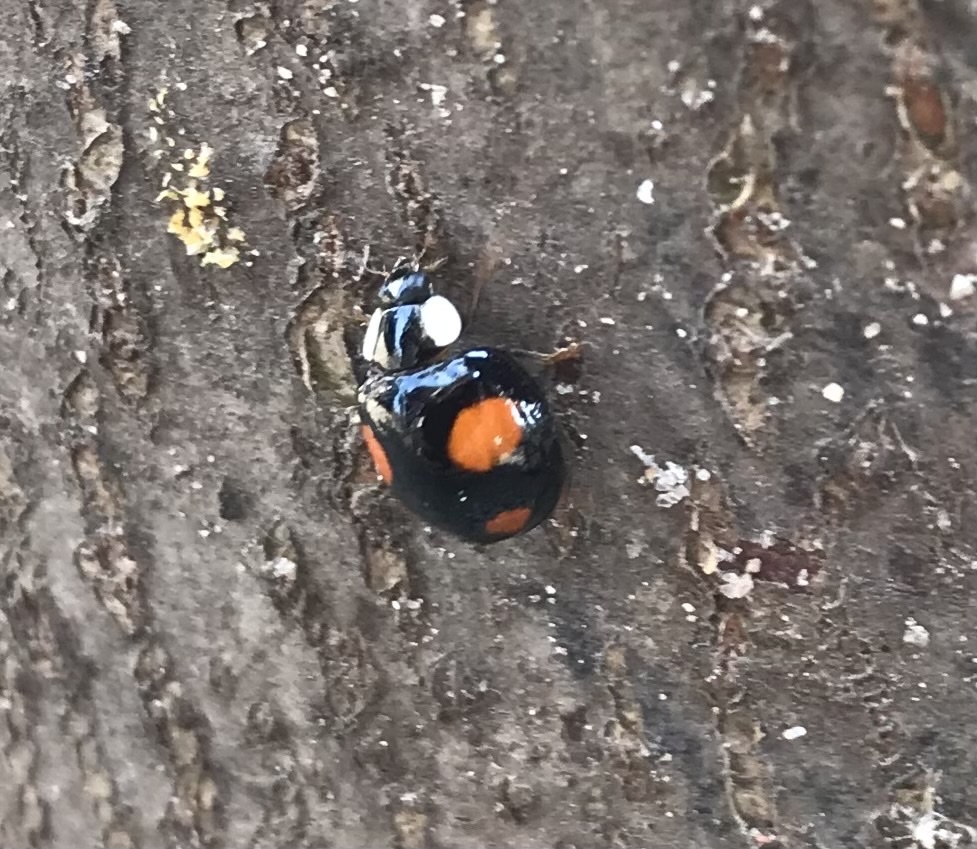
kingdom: Animalia
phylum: Arthropoda
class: Insecta
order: Coleoptera
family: Coccinellidae
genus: Harmonia
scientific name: Harmonia axyridis
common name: Harlequin ladybird
